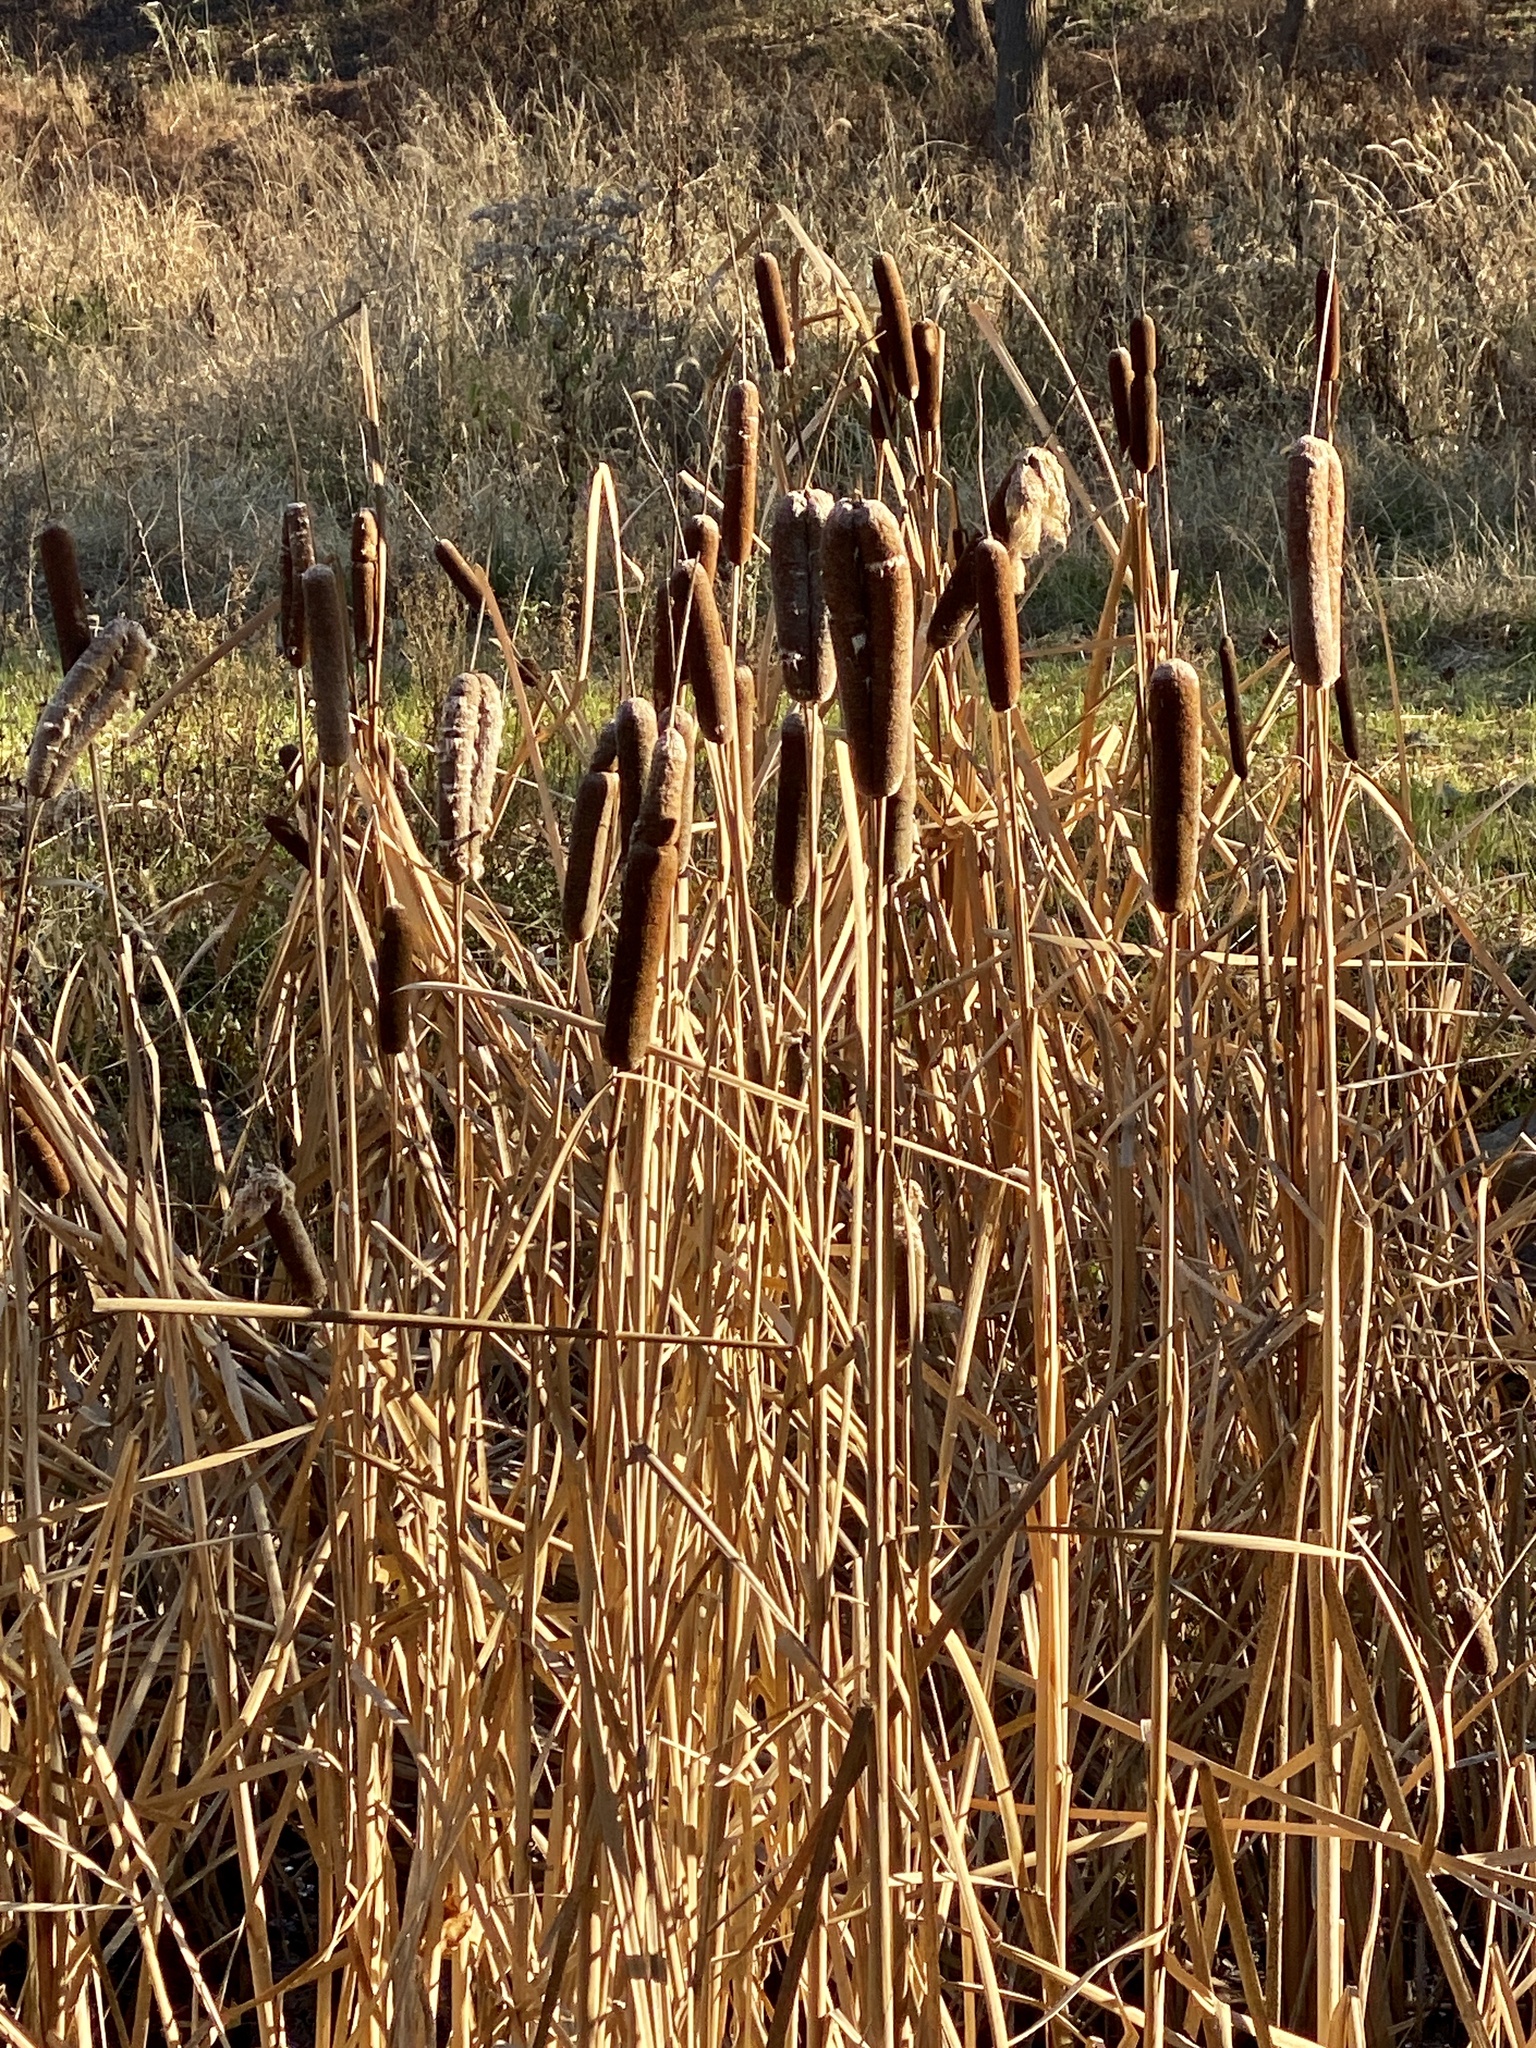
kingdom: Plantae
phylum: Tracheophyta
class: Liliopsida
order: Poales
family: Typhaceae
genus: Typha
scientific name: Typha
